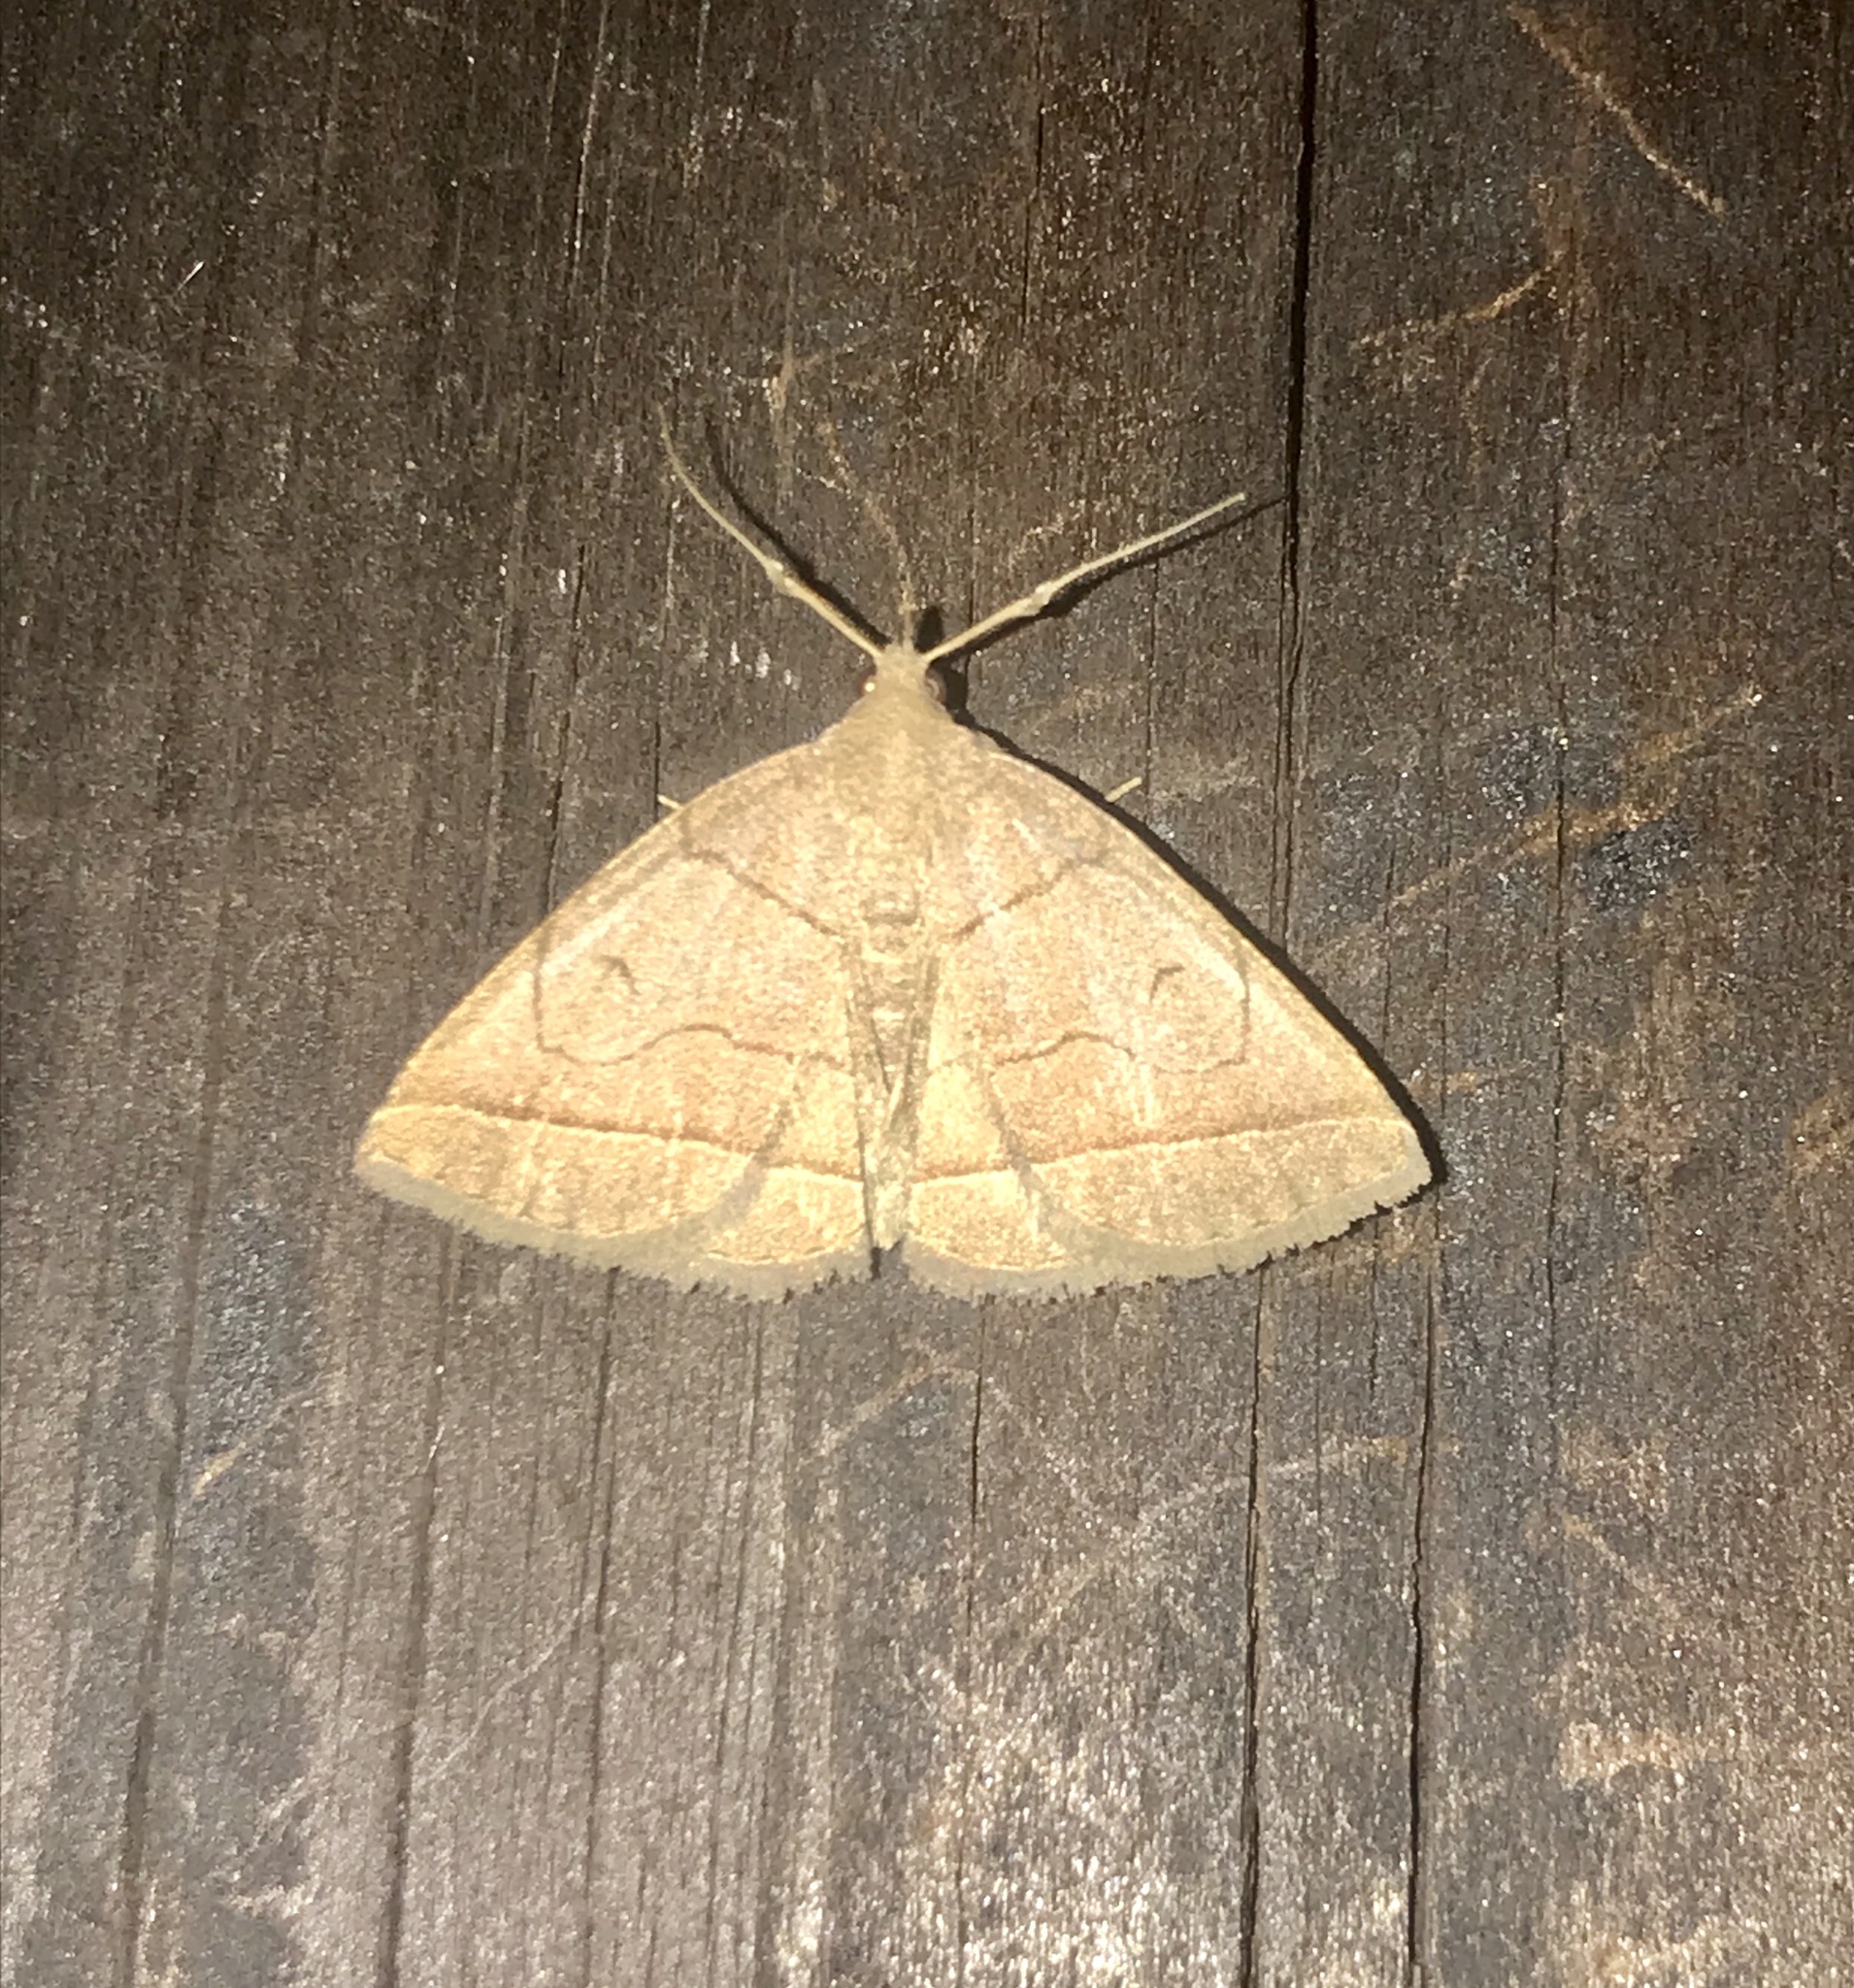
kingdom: Animalia
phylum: Arthropoda
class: Insecta
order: Lepidoptera
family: Erebidae
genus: Zanclognatha
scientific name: Zanclognatha cruralis
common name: Early fan-foot
